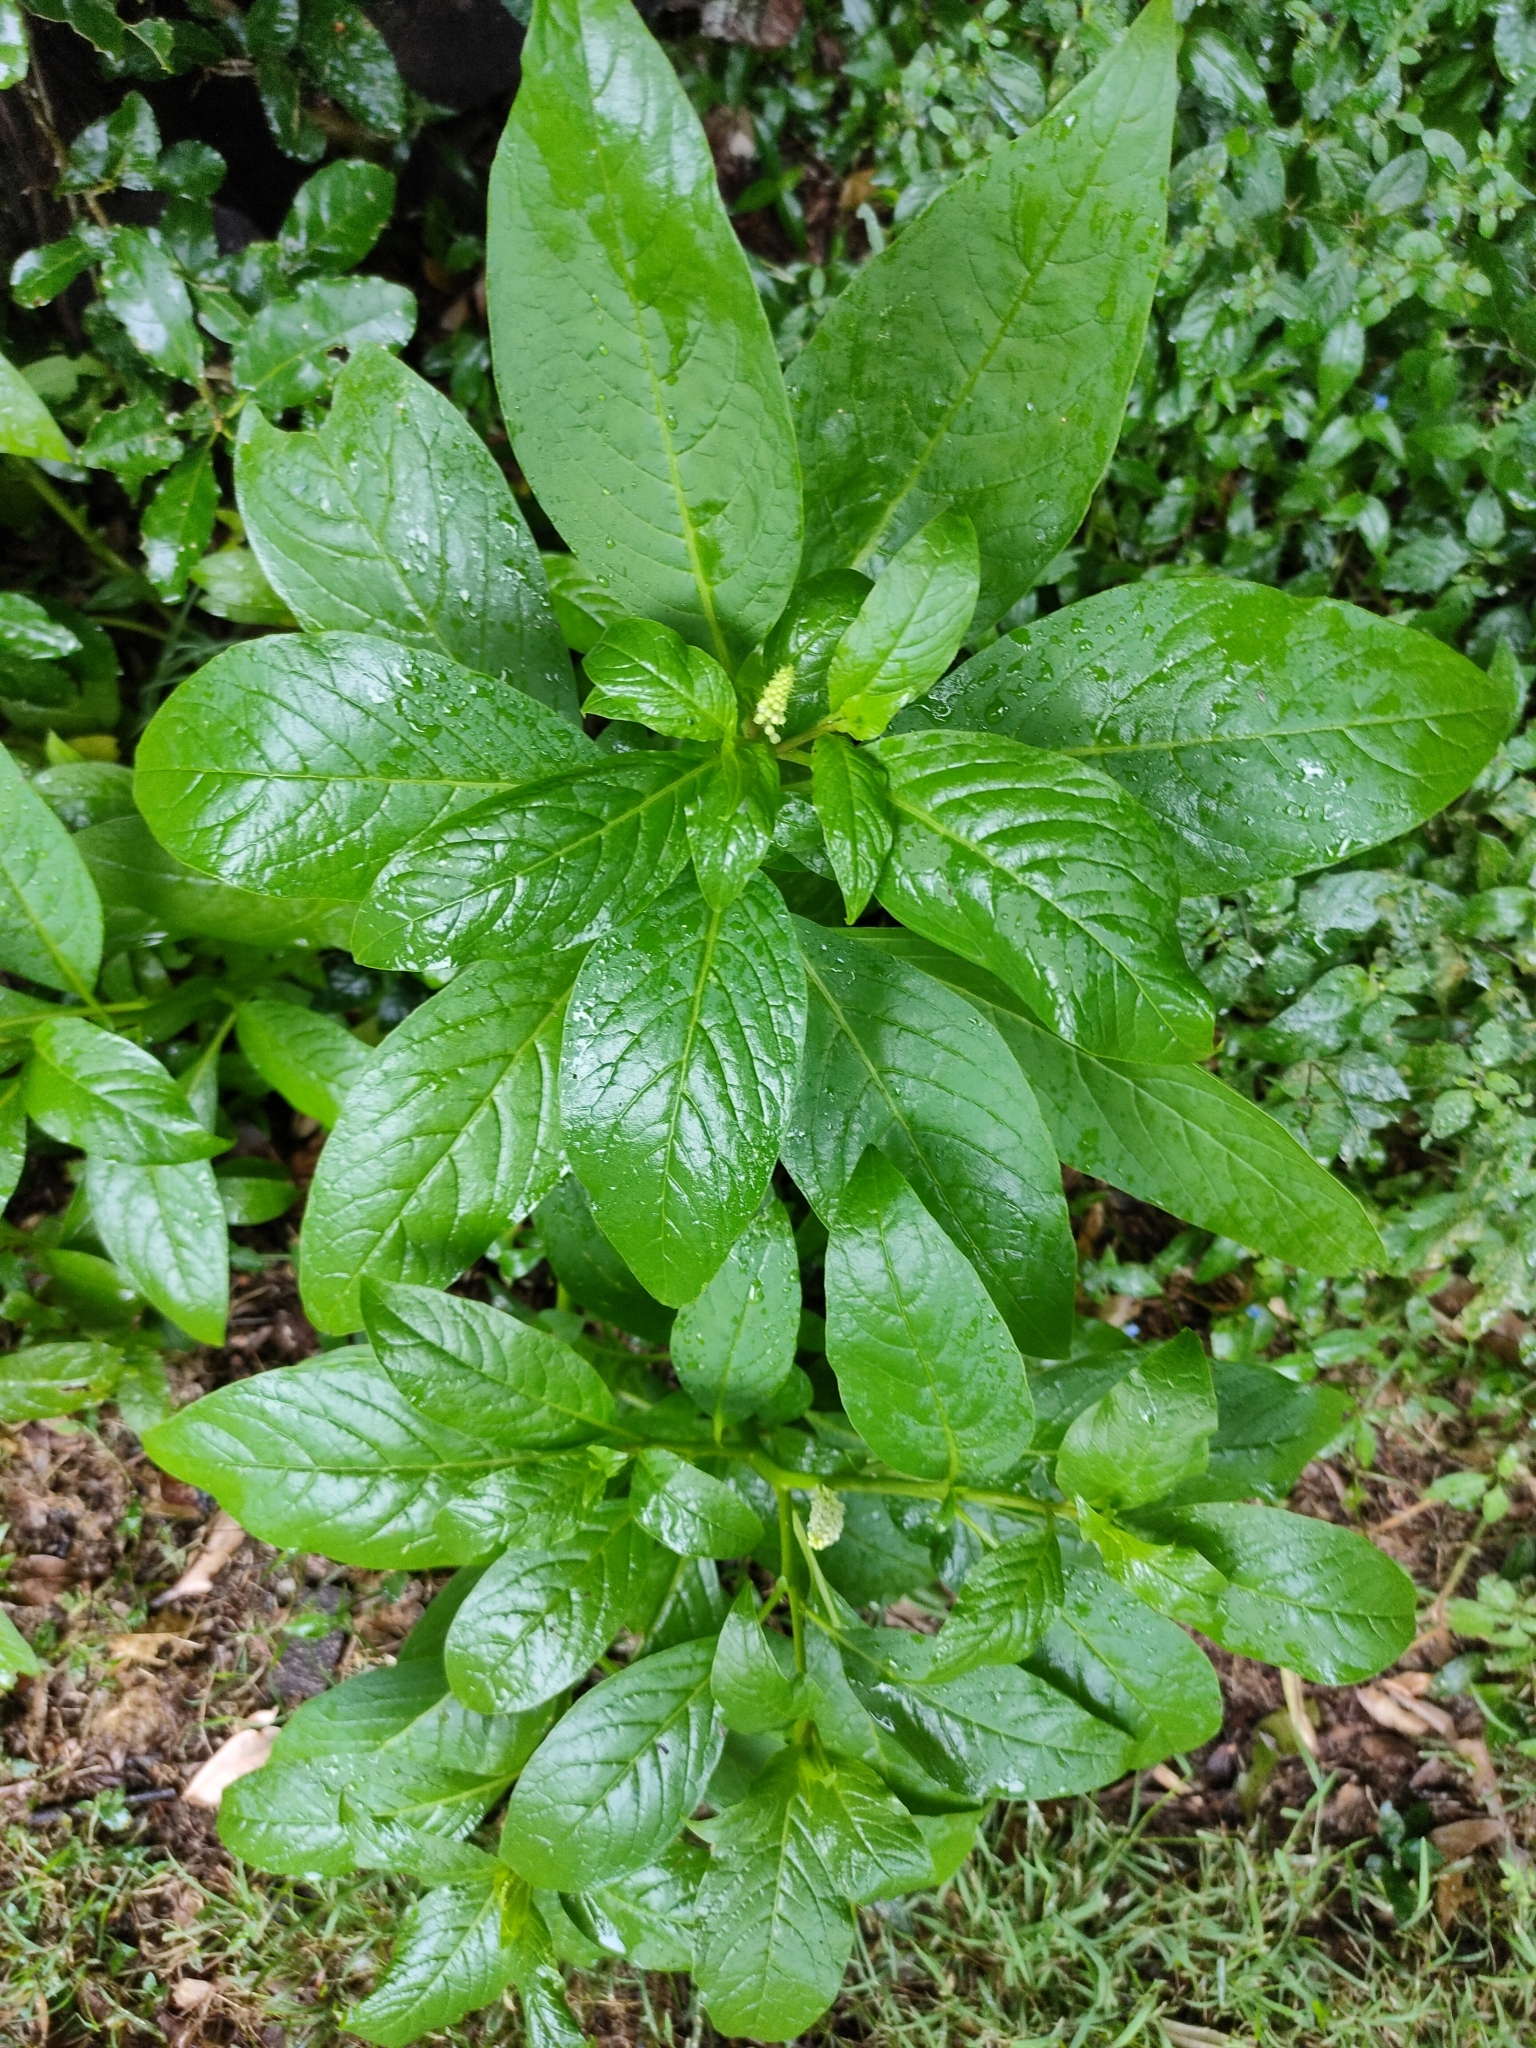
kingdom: Plantae
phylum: Tracheophyta
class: Magnoliopsida
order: Caryophyllales
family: Phytolaccaceae
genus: Phytolacca
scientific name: Phytolacca icosandra
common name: Button pokeweed
